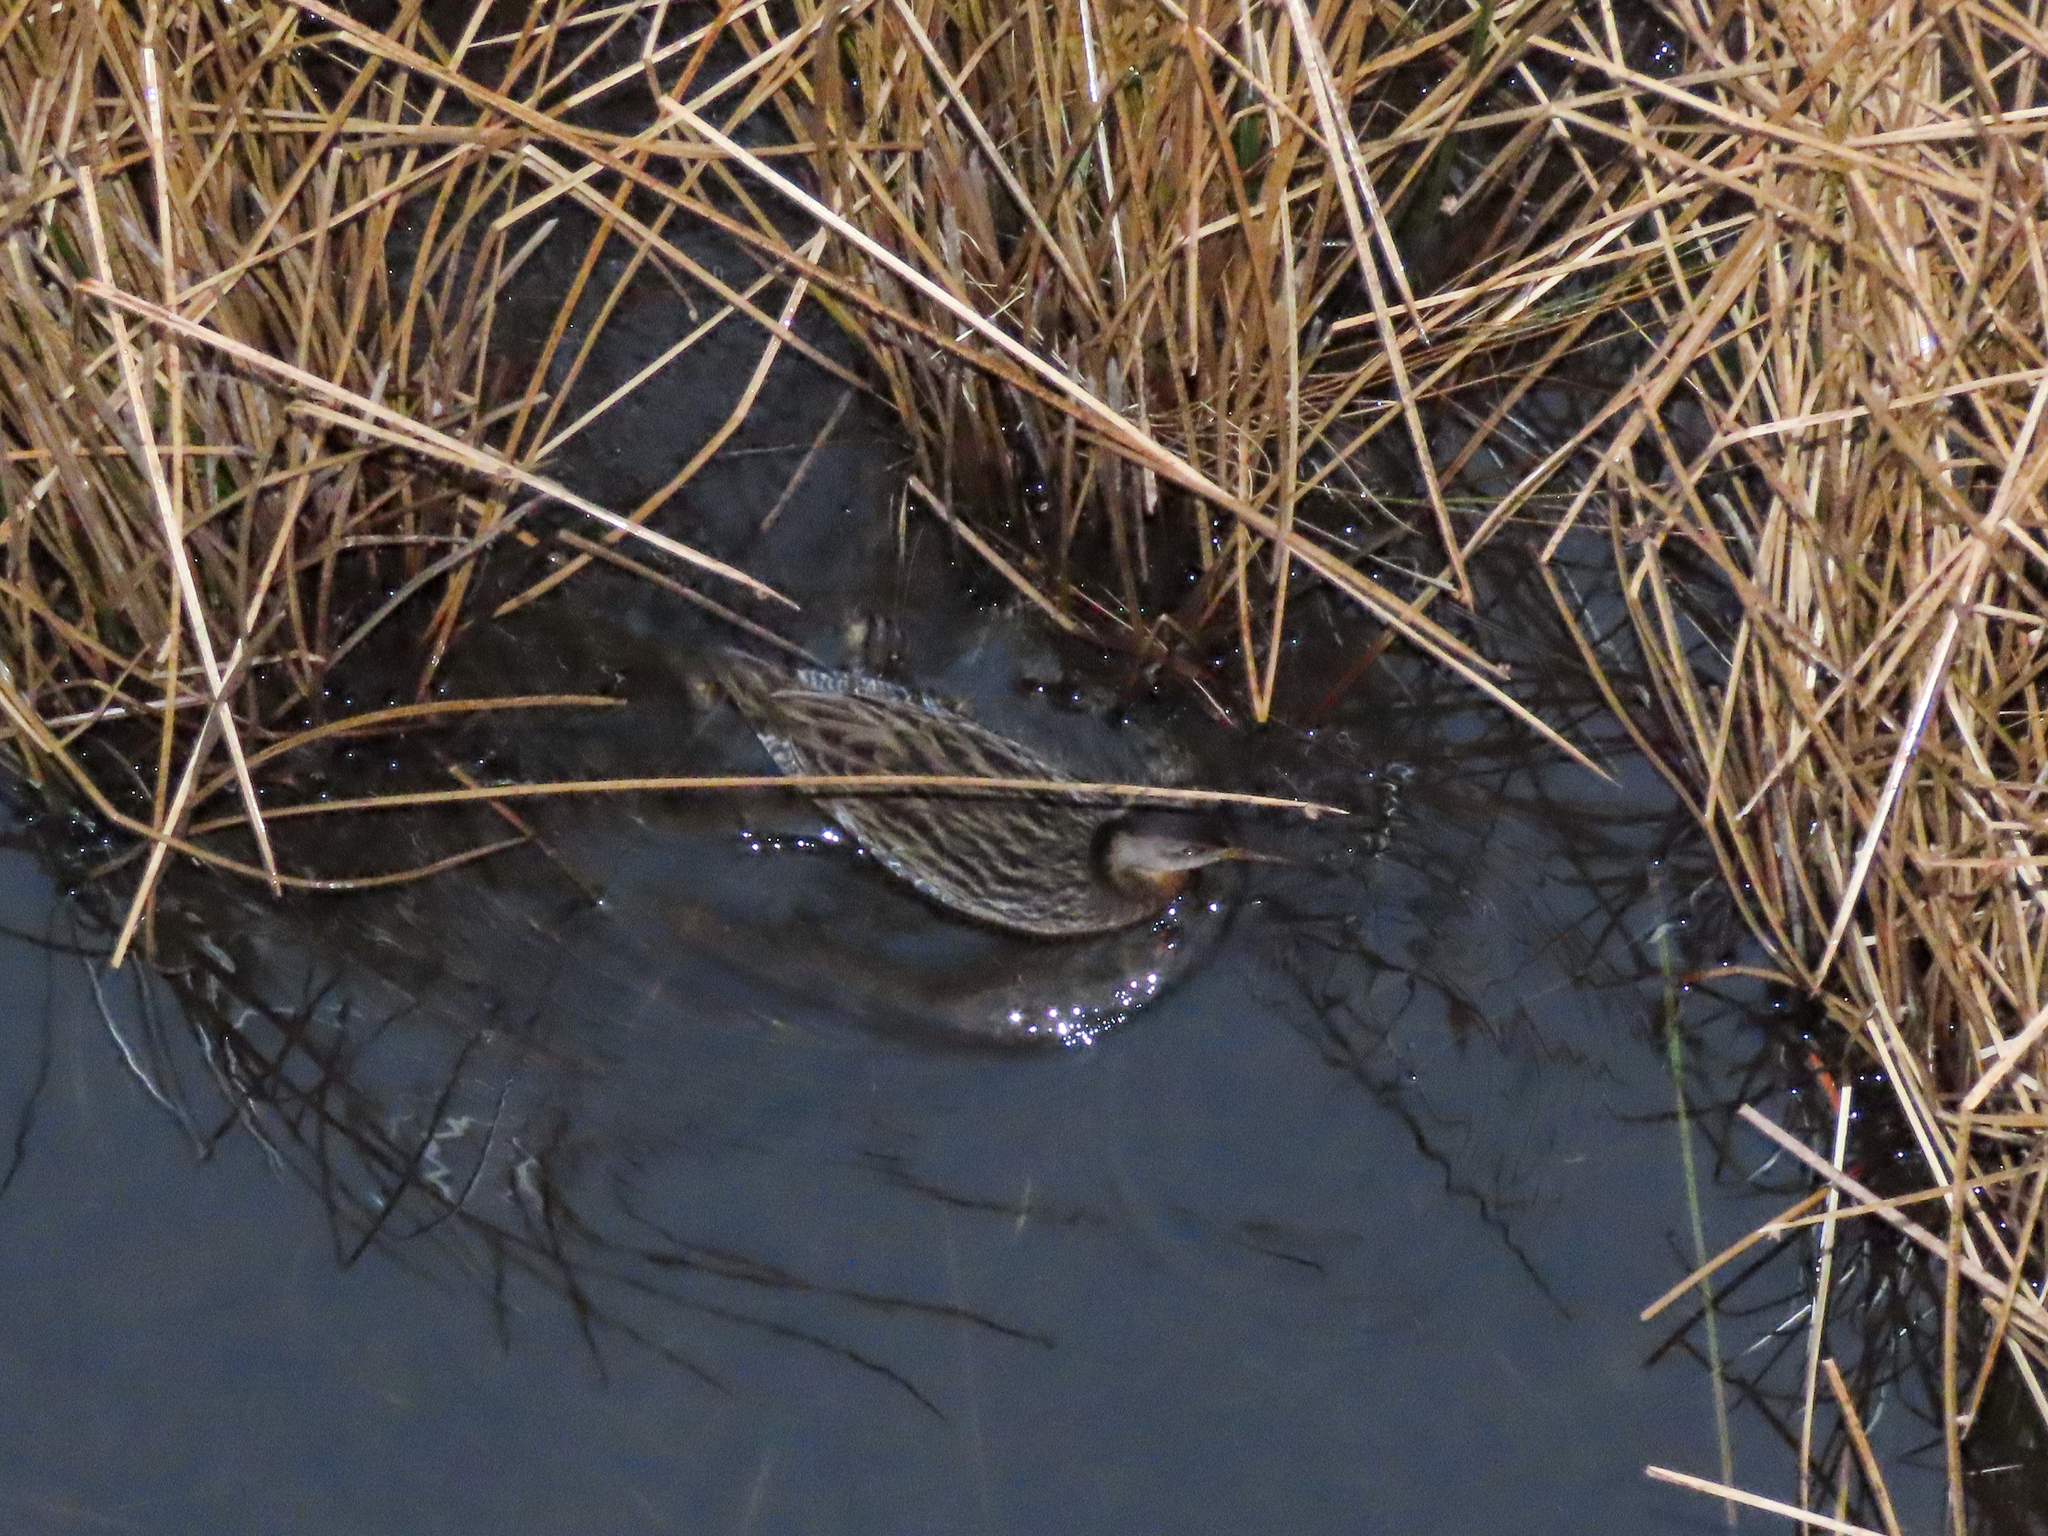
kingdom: Animalia
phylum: Chordata
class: Aves
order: Gruiformes
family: Rallidae
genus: Rallus
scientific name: Rallus elegans
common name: King rail
